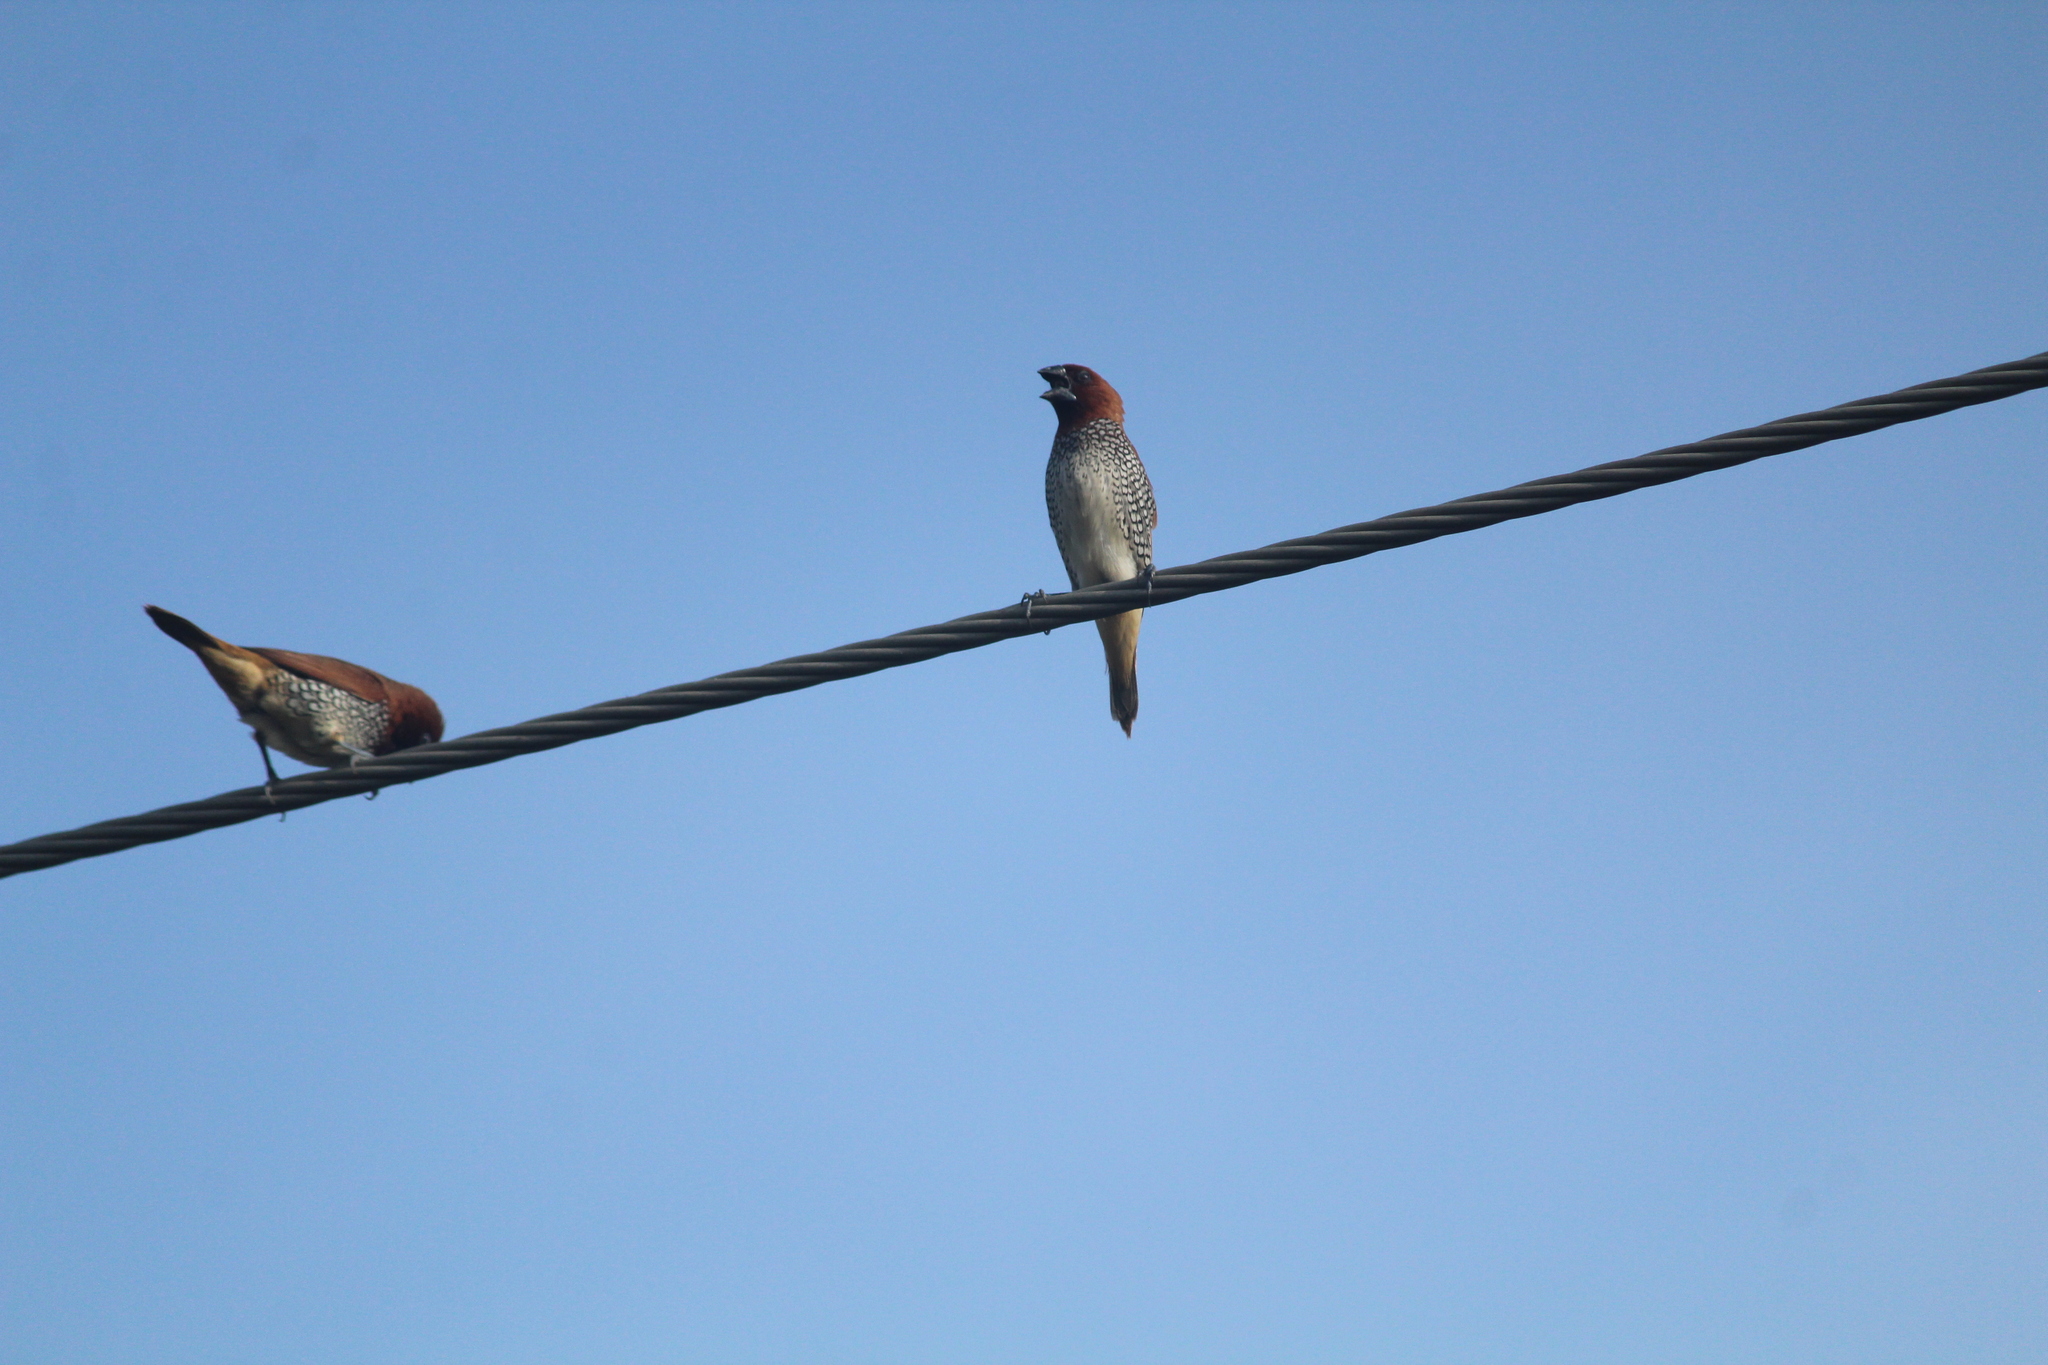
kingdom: Animalia
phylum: Chordata
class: Aves
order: Passeriformes
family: Estrildidae
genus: Lonchura
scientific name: Lonchura punctulata
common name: Scaly-breasted munia
